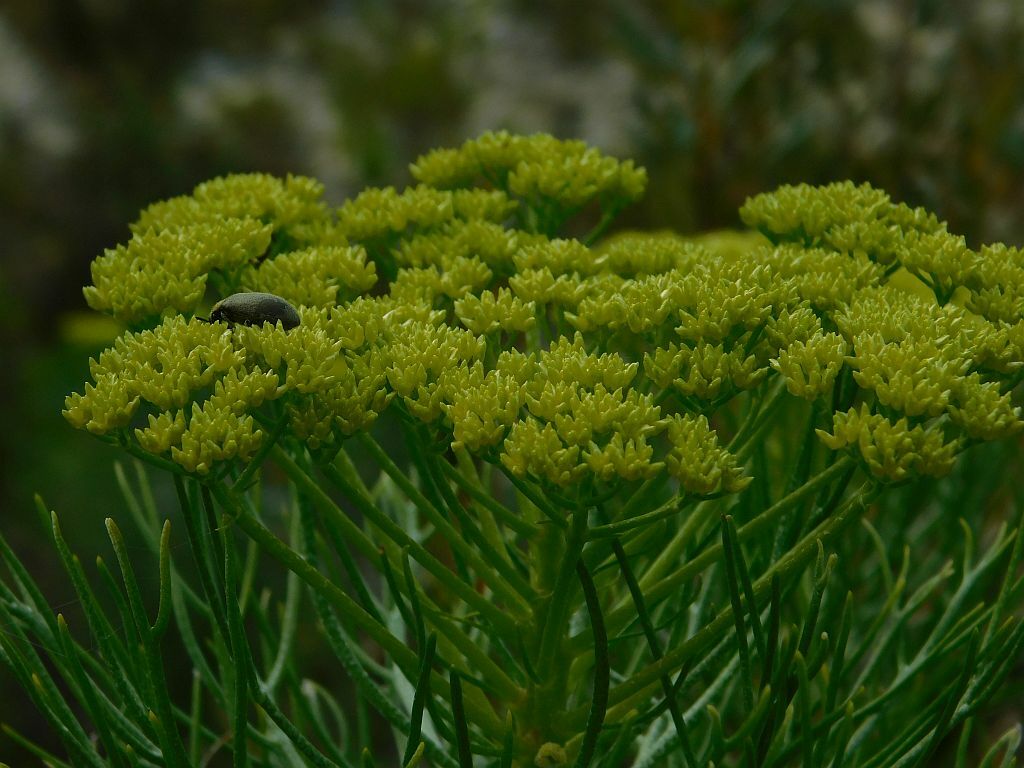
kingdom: Plantae
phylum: Tracheophyta
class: Magnoliopsida
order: Asterales
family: Asteraceae
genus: Hymenolepis
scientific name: Hymenolepis crithmifolia
